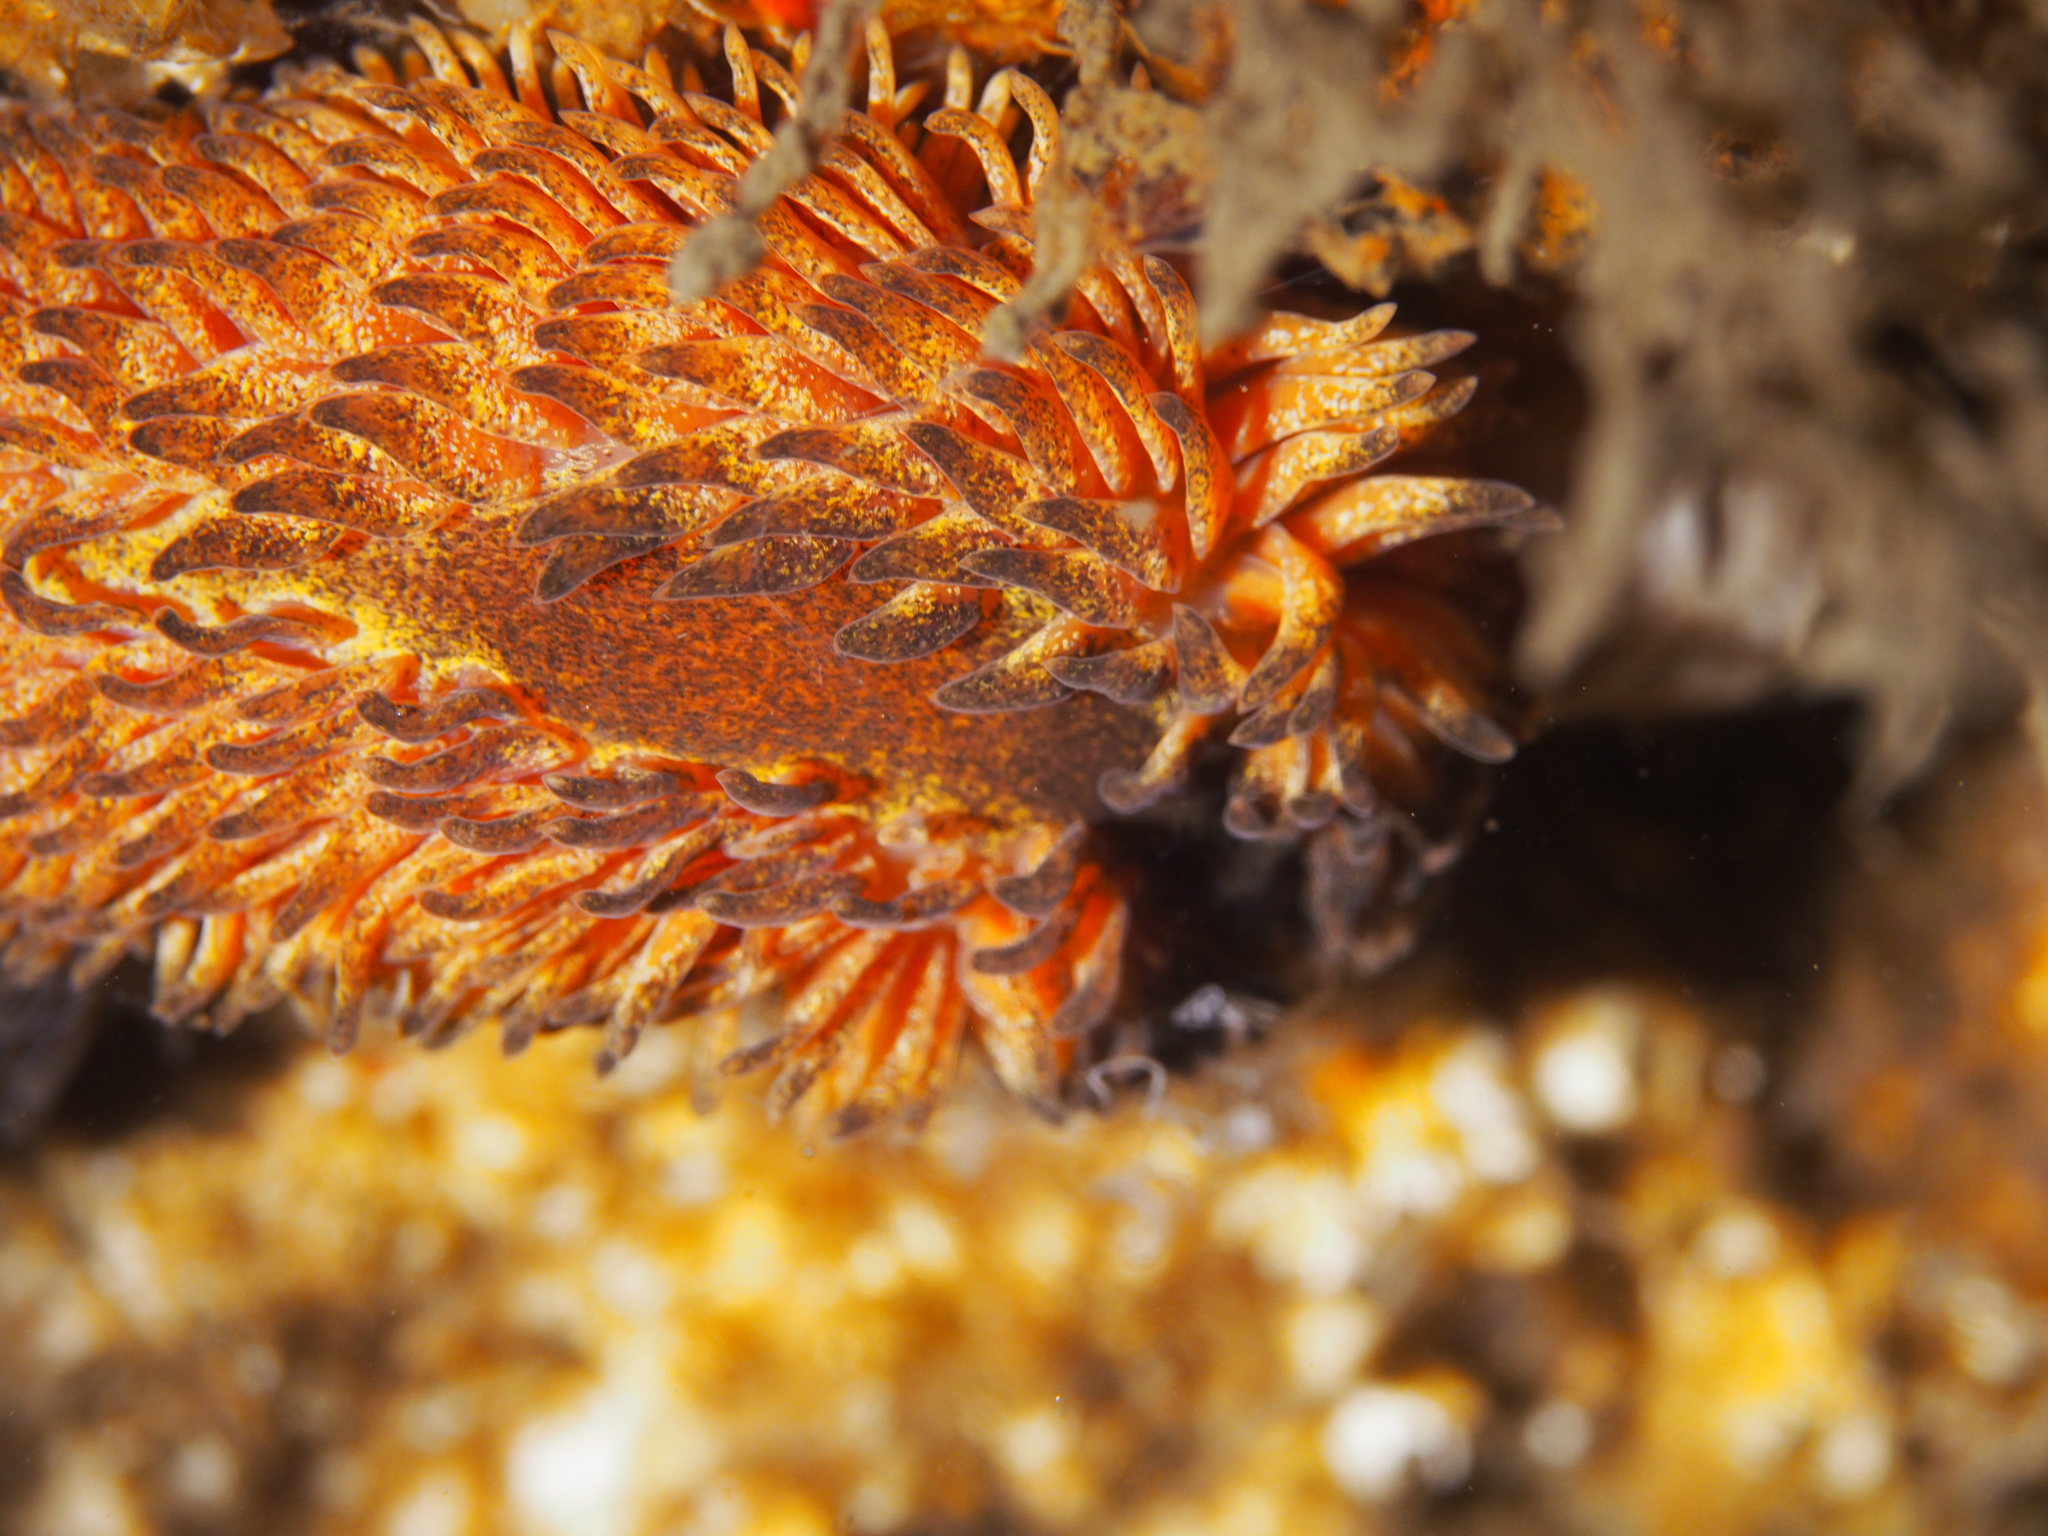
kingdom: Animalia
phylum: Mollusca
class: Gastropoda
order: Nudibranchia
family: Aeolidiidae
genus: Aeolidia
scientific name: Aeolidia papillosa
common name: Common grey sea slug
